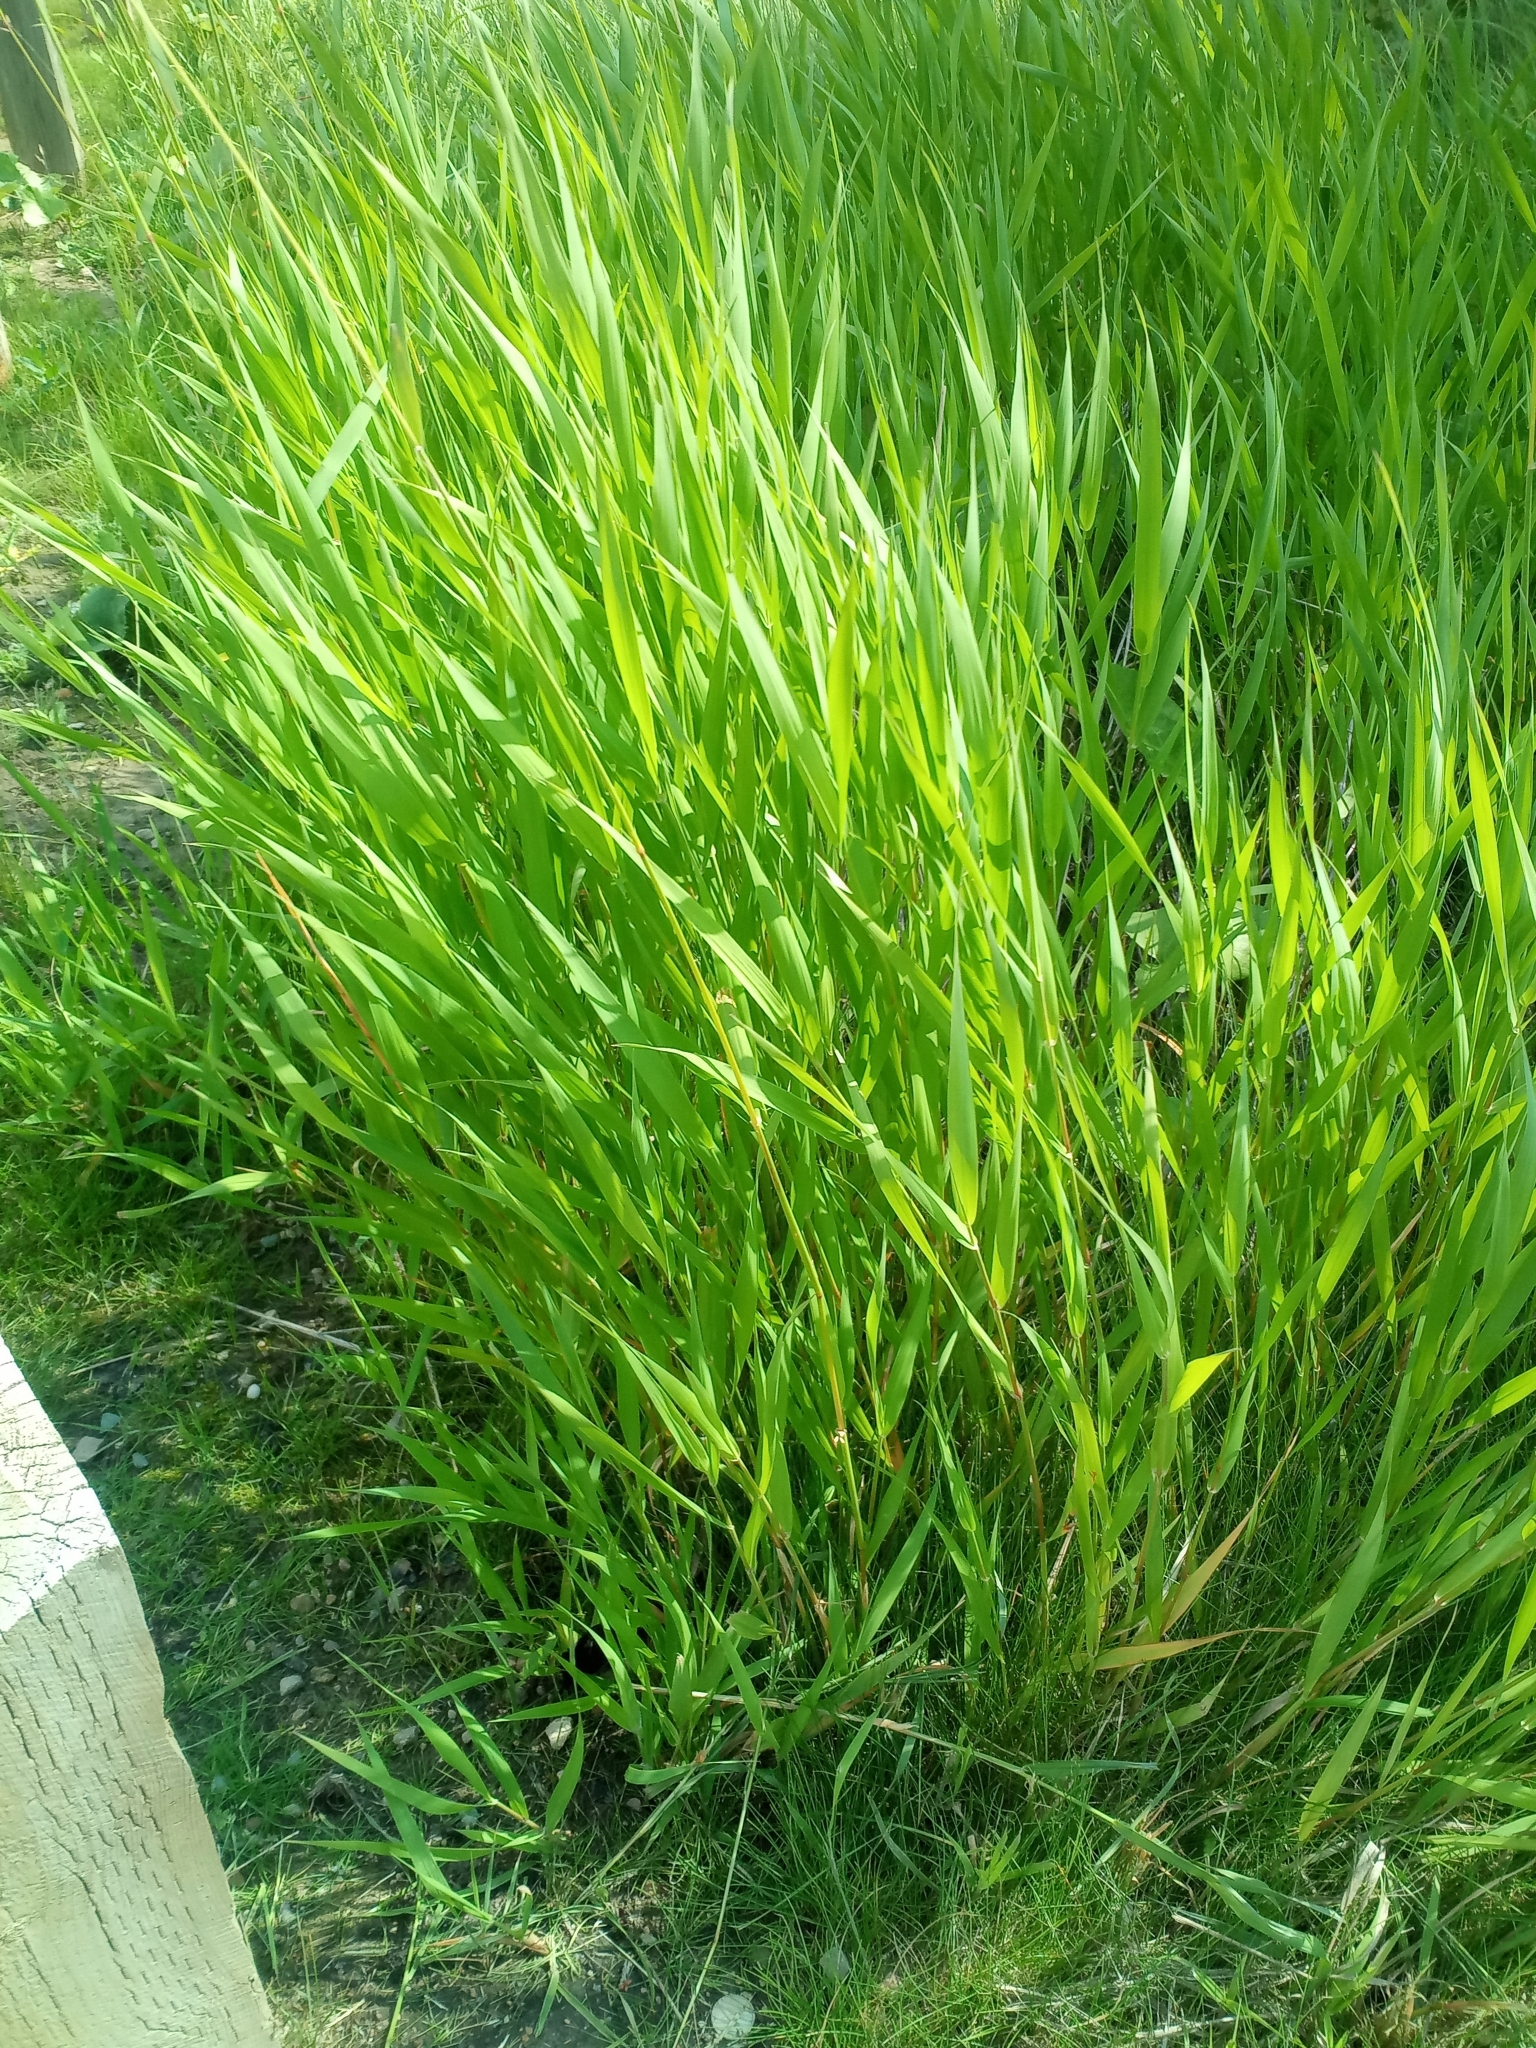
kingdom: Plantae
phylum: Tracheophyta
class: Liliopsida
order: Poales
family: Poaceae
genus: Phalaris
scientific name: Phalaris arundinacea
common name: Reed canary-grass
